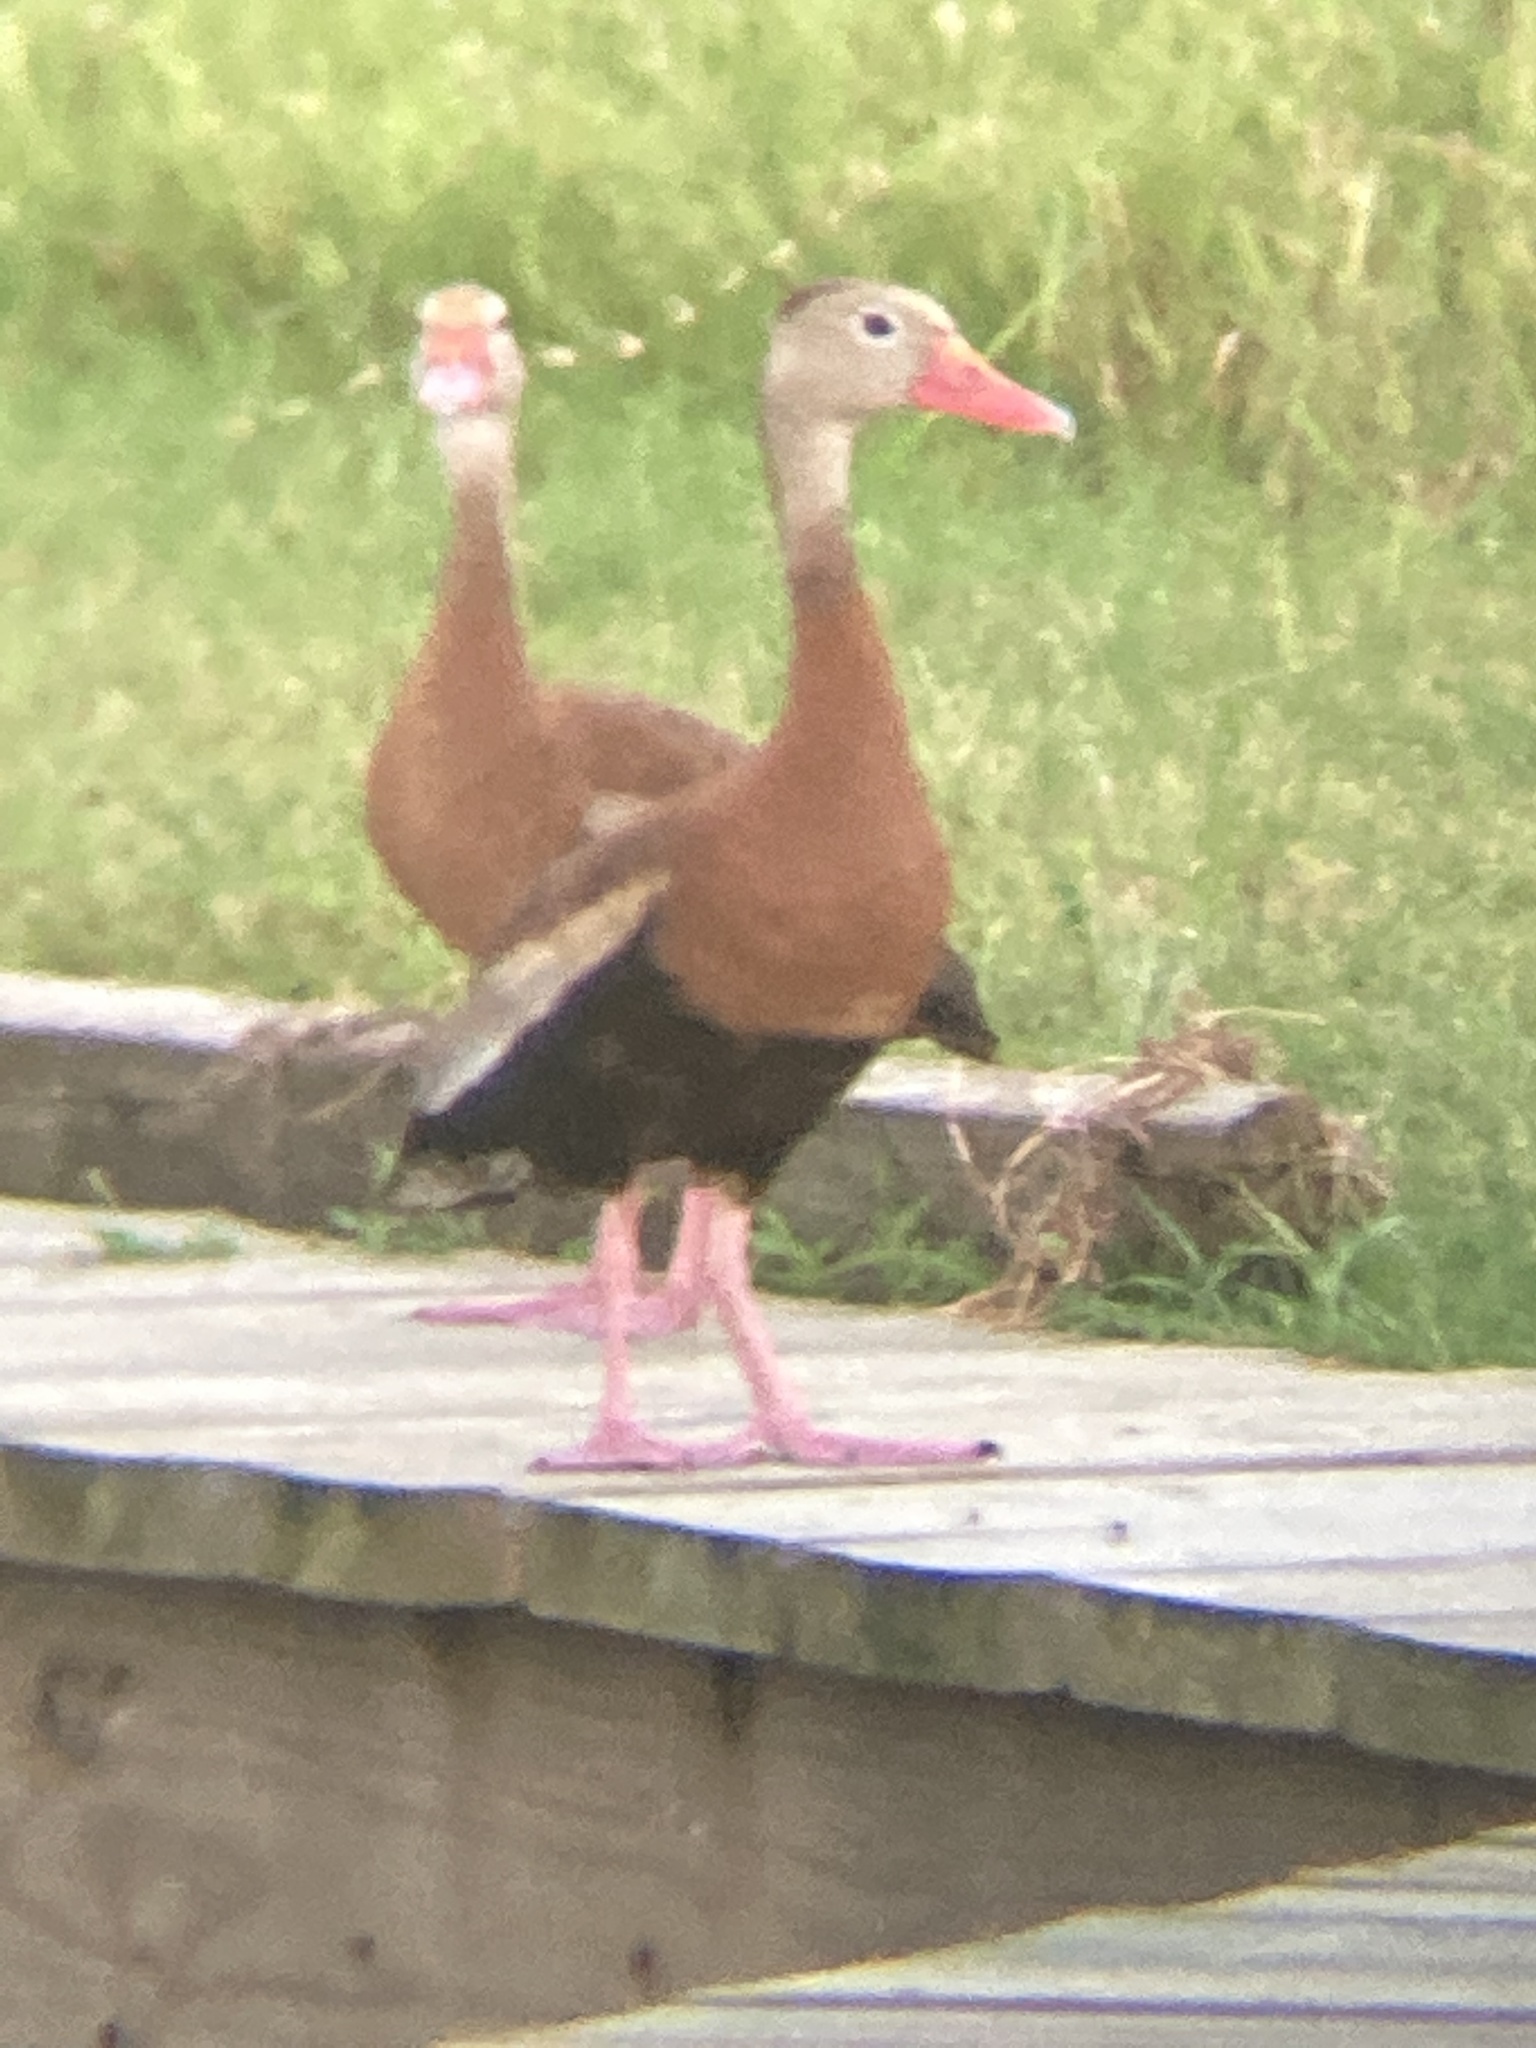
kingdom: Animalia
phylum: Chordata
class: Aves
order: Anseriformes
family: Anatidae
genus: Dendrocygna
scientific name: Dendrocygna autumnalis
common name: Black-bellied whistling duck
